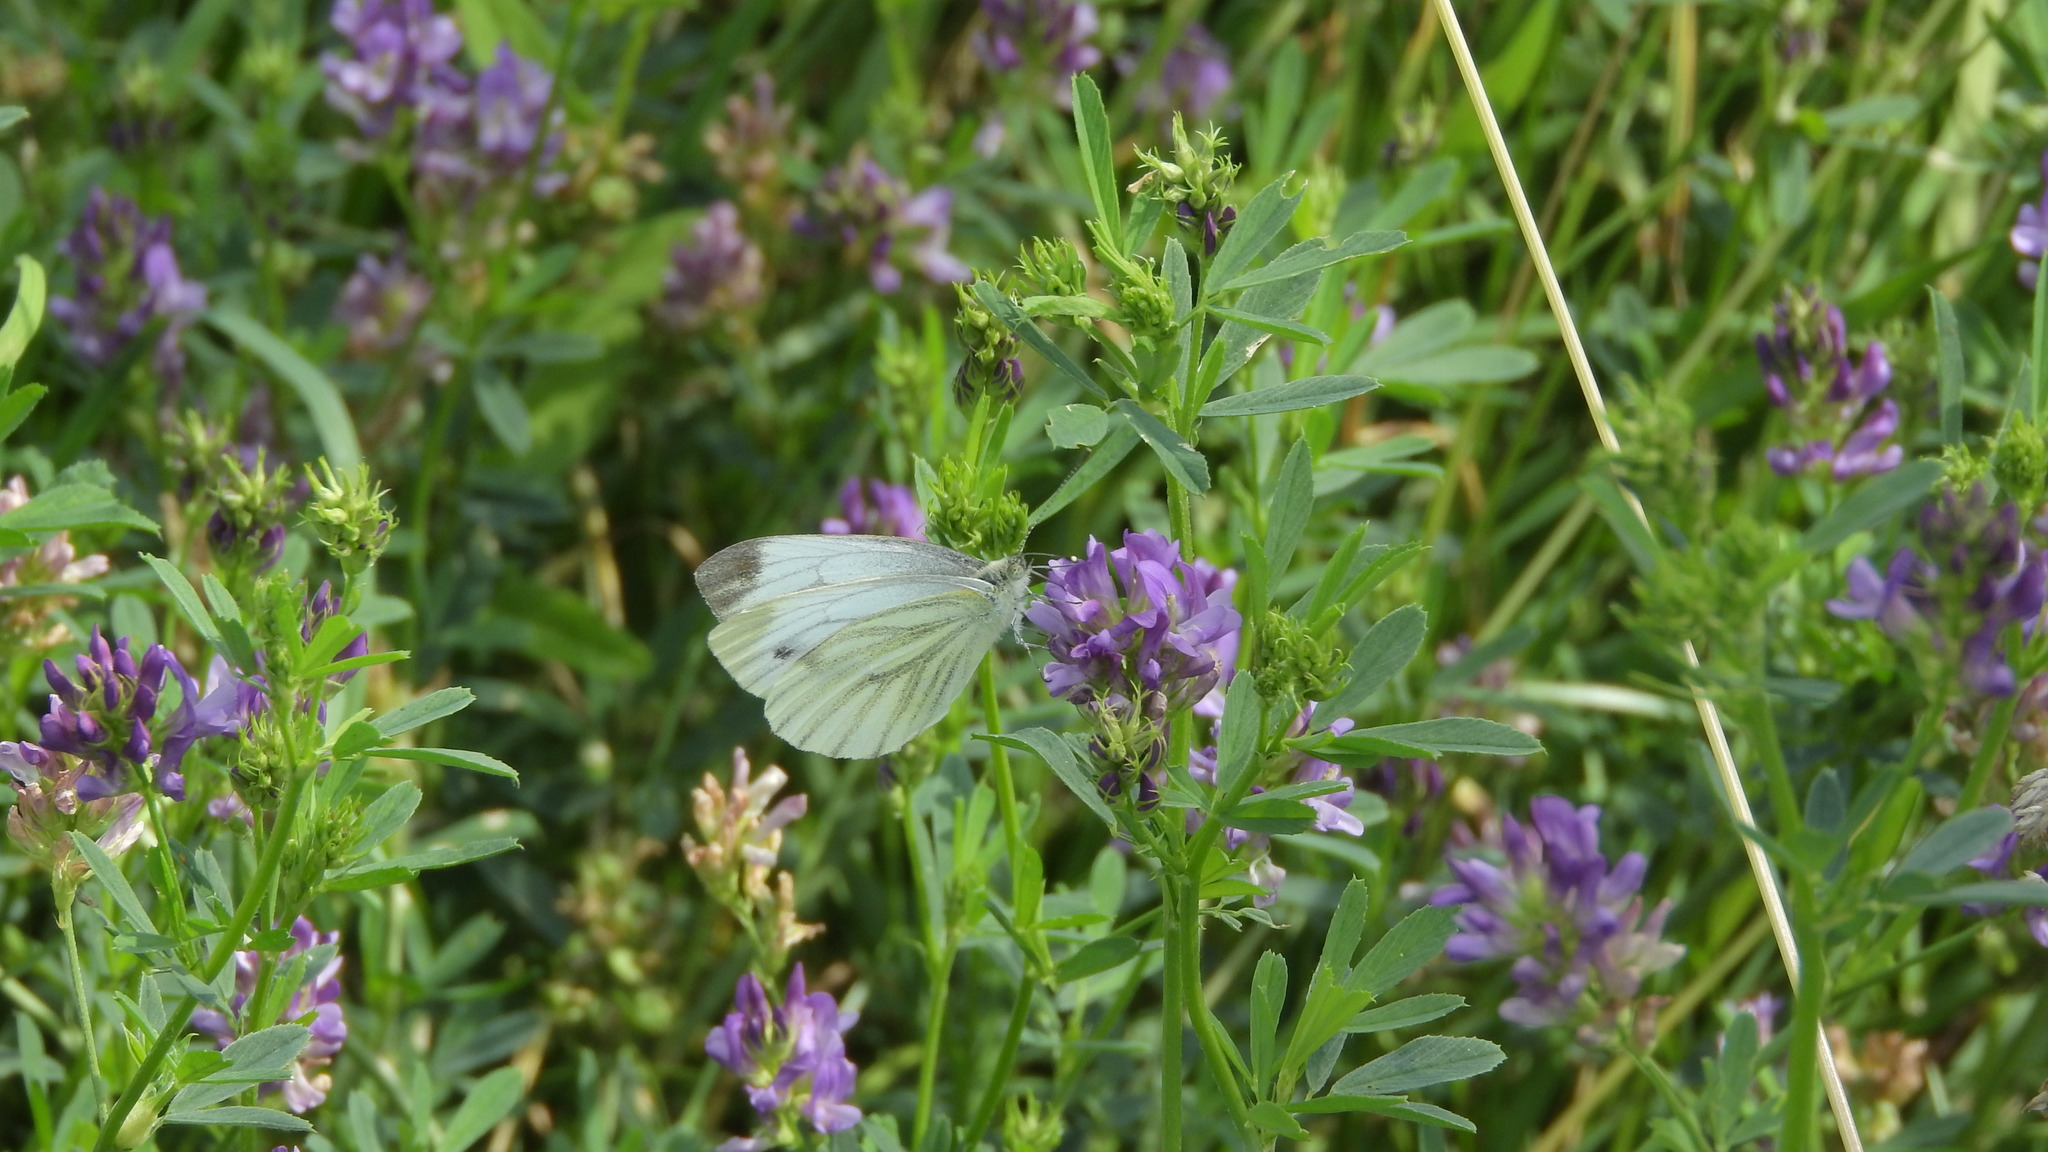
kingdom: Animalia
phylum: Arthropoda
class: Insecta
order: Lepidoptera
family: Pieridae
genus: Pieris
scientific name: Pieris napi
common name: Green-veined white
